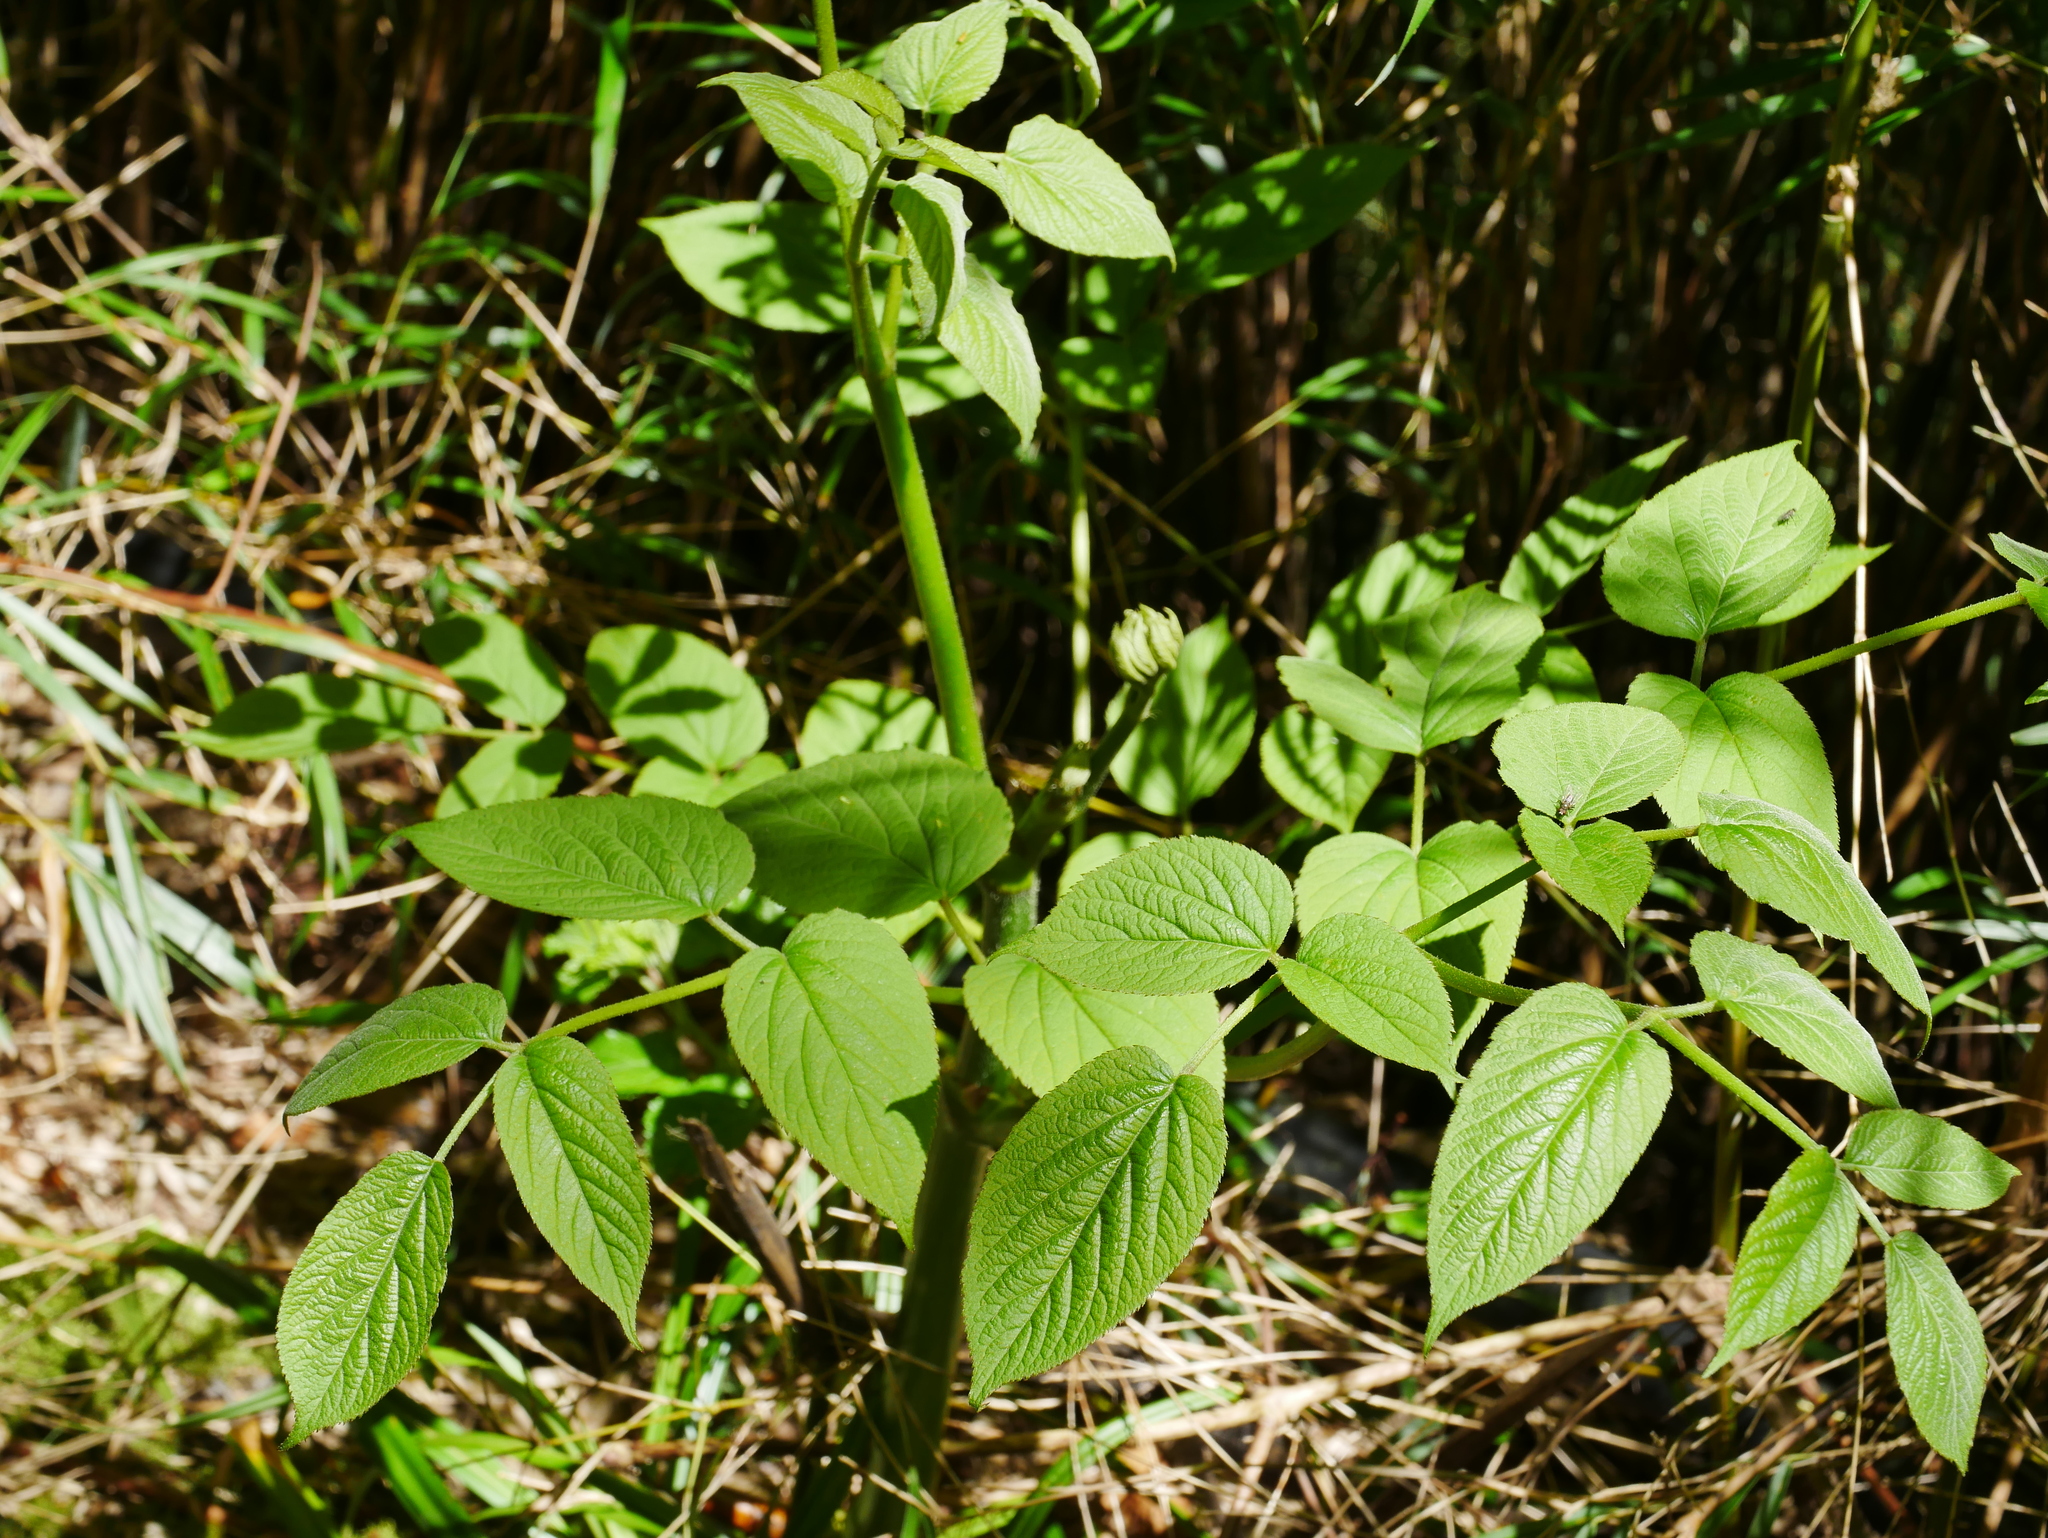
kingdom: Plantae
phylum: Tracheophyta
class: Magnoliopsida
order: Apiales
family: Araliaceae
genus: Aralia
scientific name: Aralia cordata
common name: Udo
